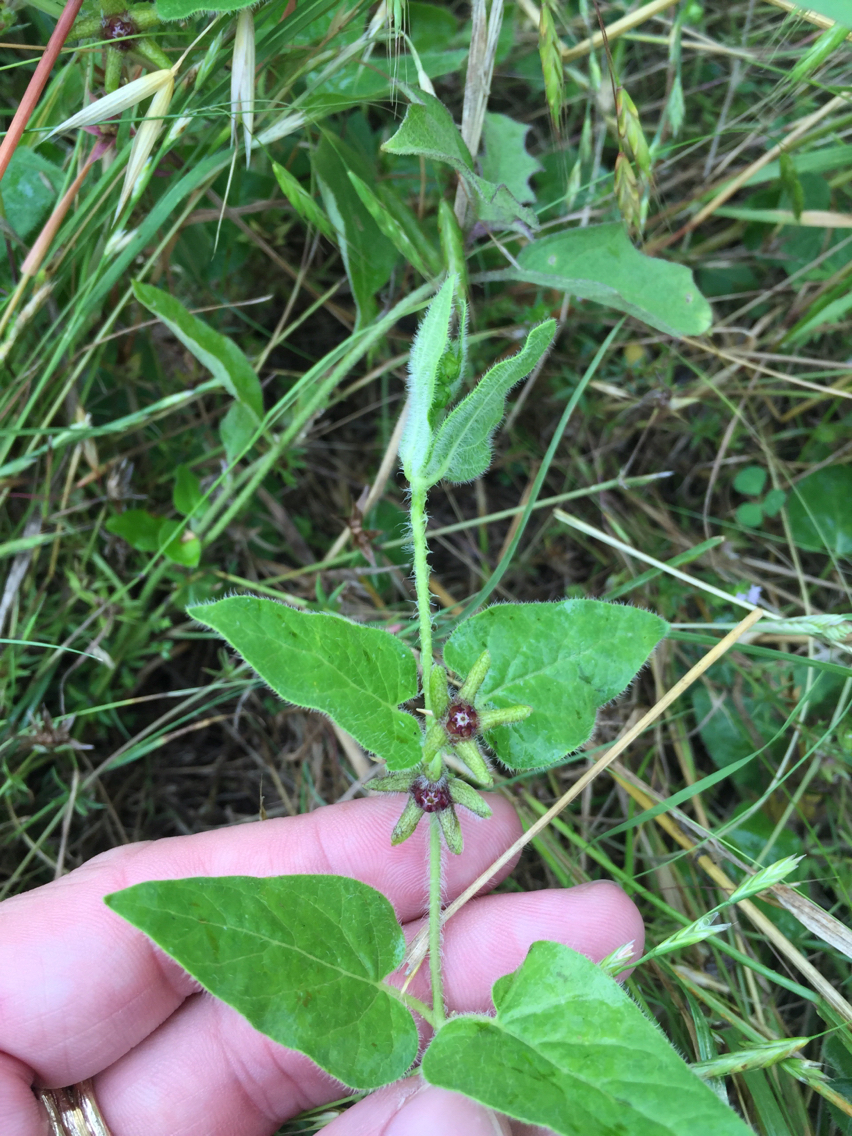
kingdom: Plantae
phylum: Tracheophyta
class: Magnoliopsida
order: Gentianales
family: Apocynaceae
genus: Chthamalia
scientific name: Chthamalia biflora
